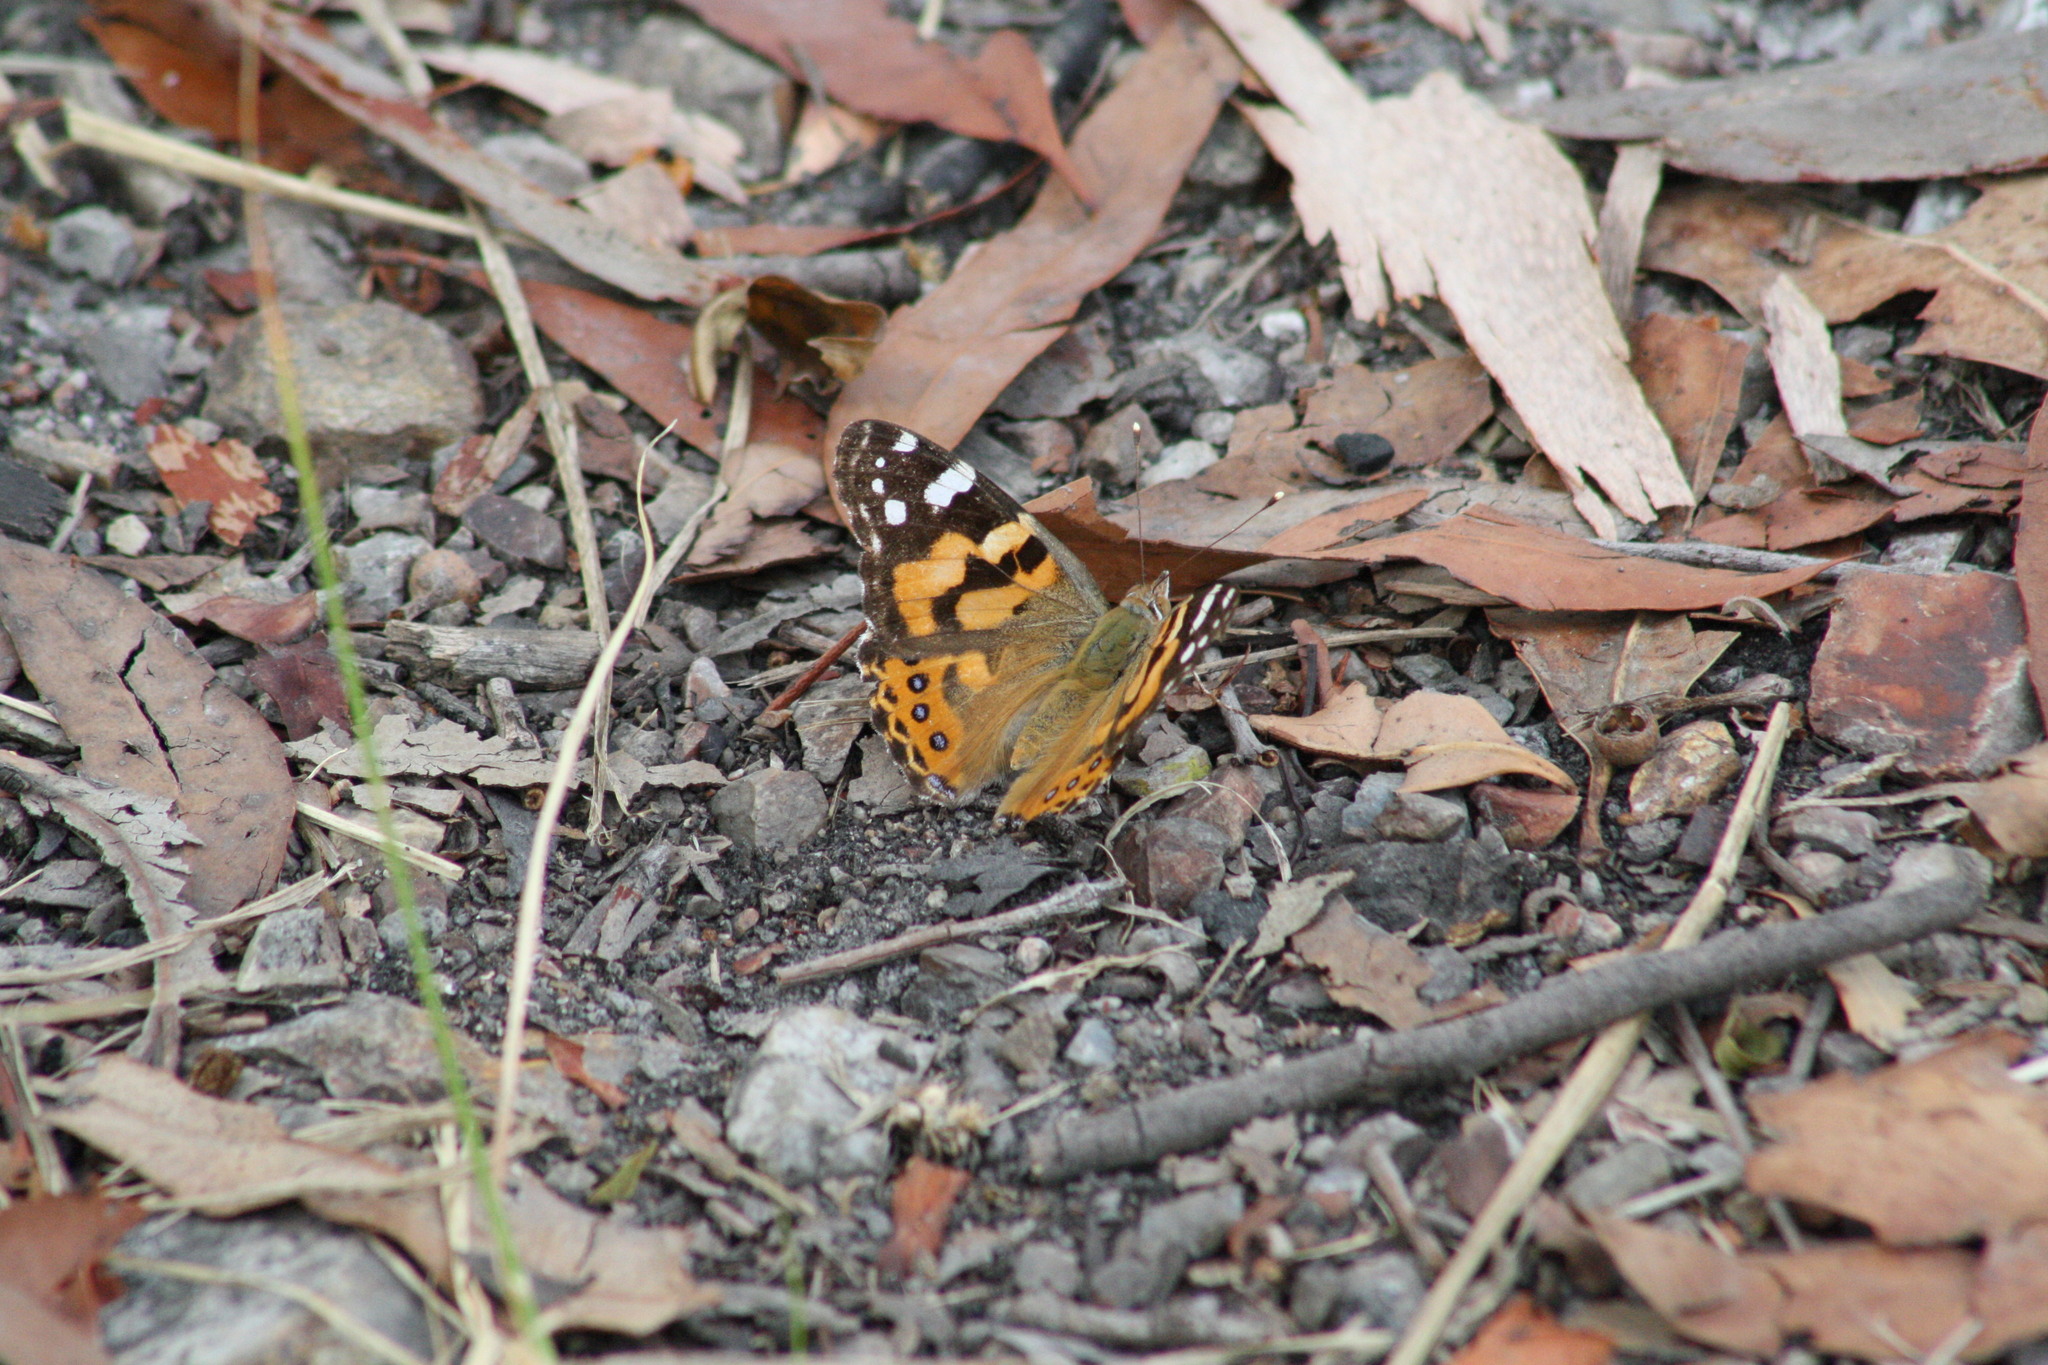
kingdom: Animalia
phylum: Arthropoda
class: Insecta
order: Lepidoptera
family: Nymphalidae
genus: Vanessa
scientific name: Vanessa kershawi
